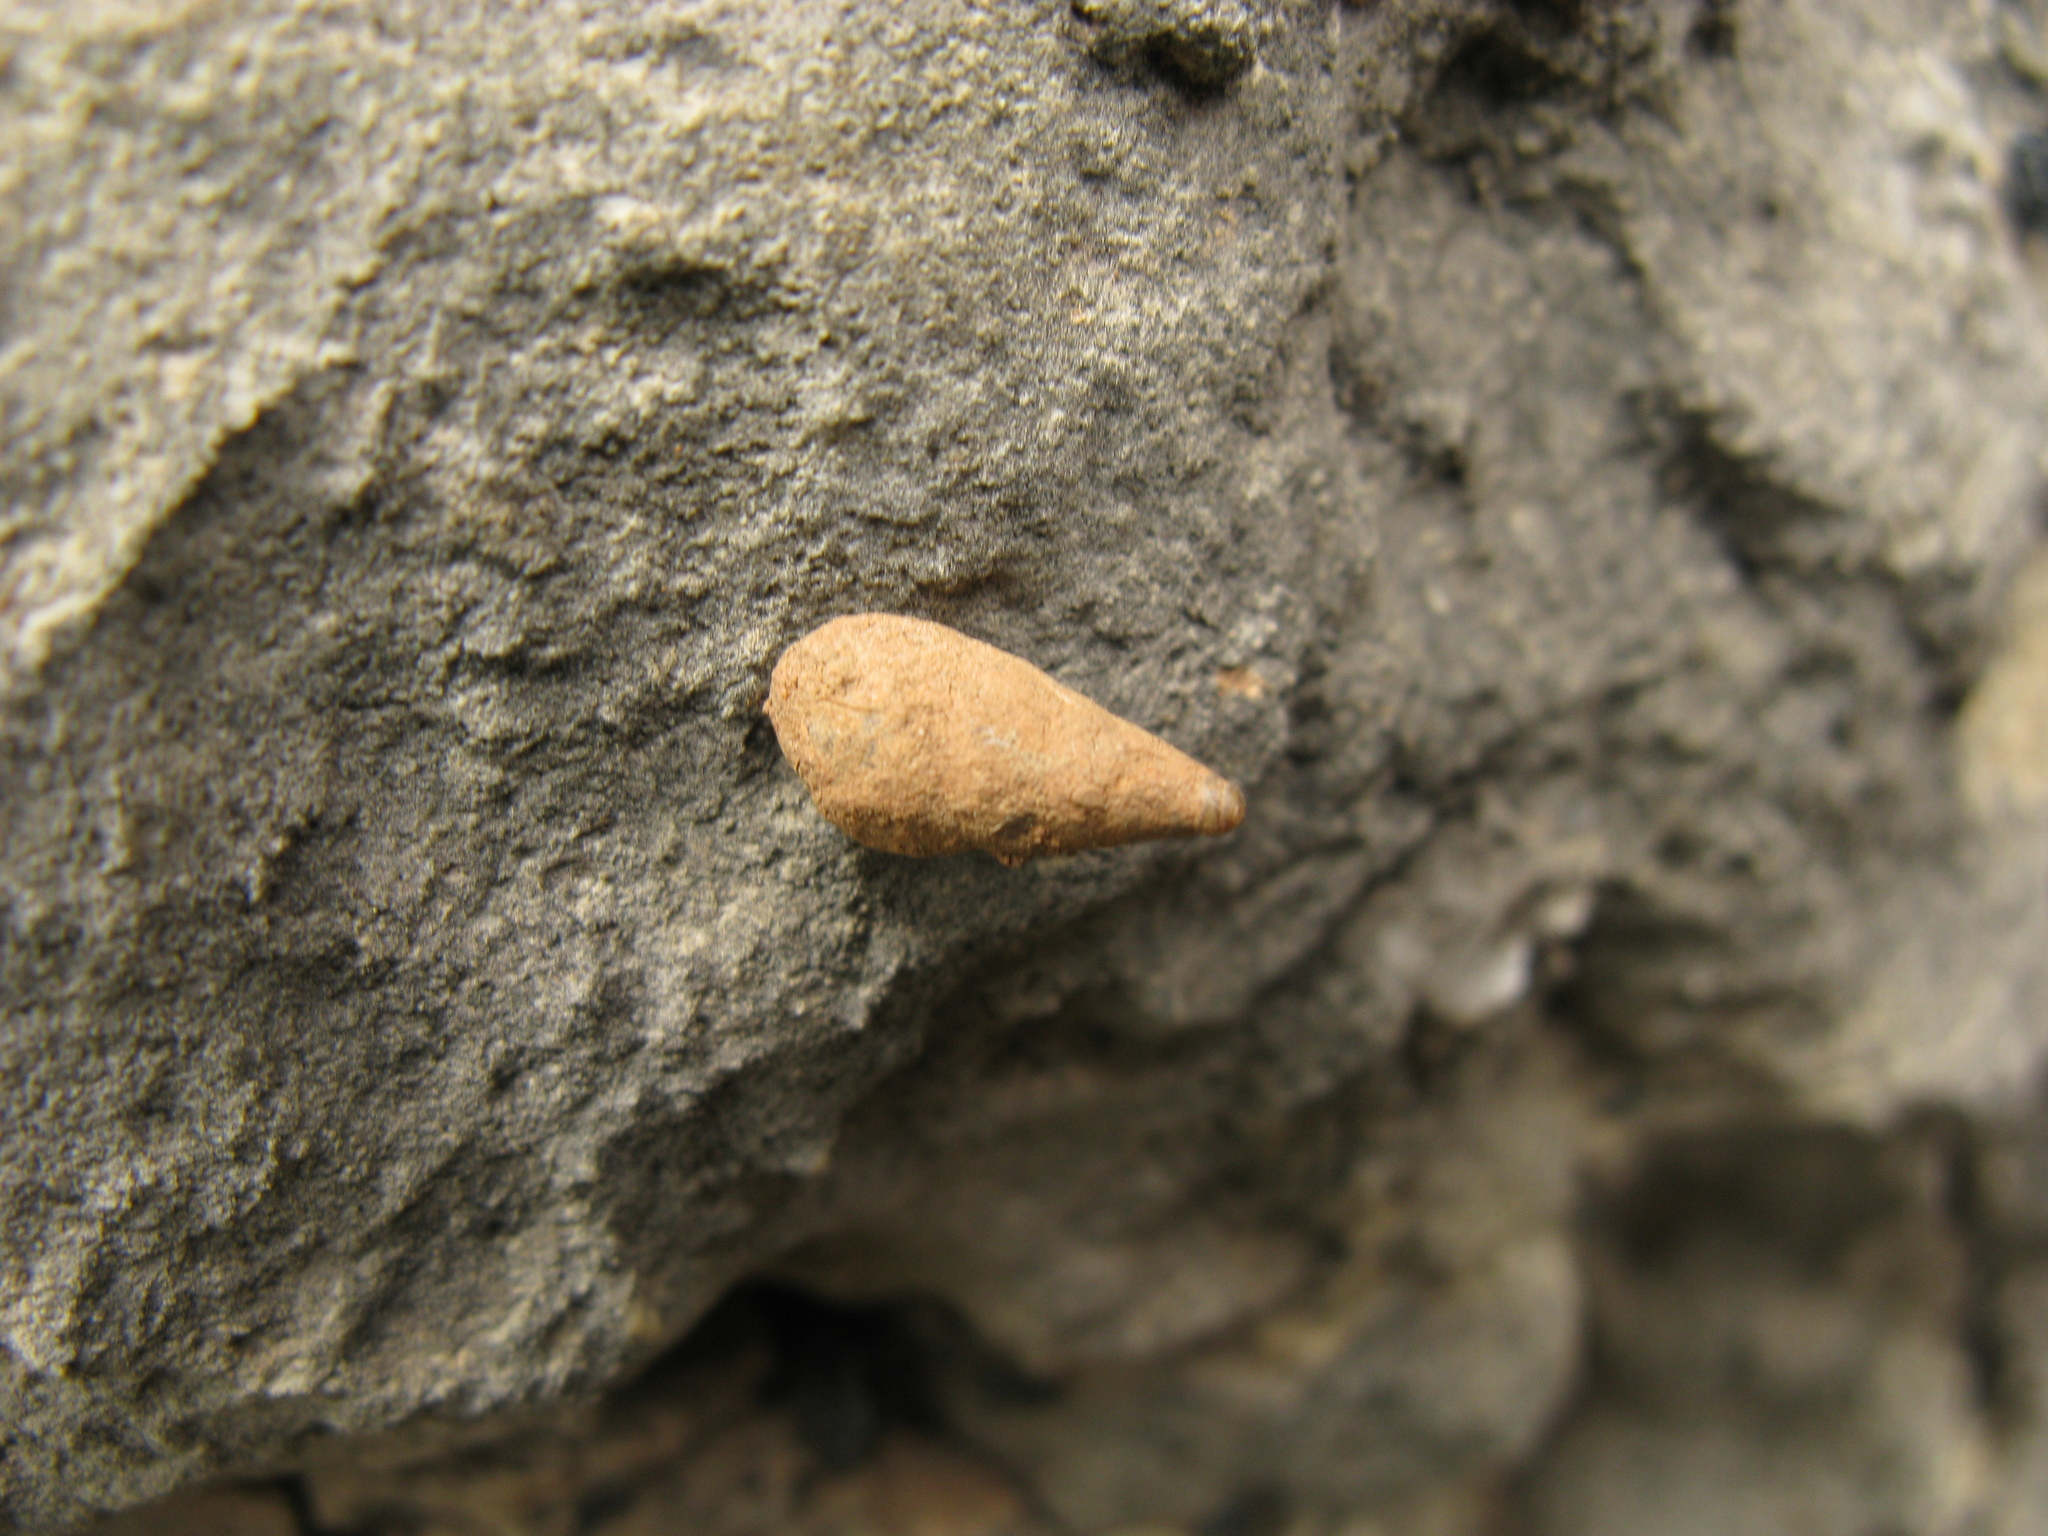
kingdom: Animalia
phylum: Mollusca
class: Gastropoda
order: Stylommatophora
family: Enidae
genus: Peristoma
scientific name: Peristoma merduenianum
